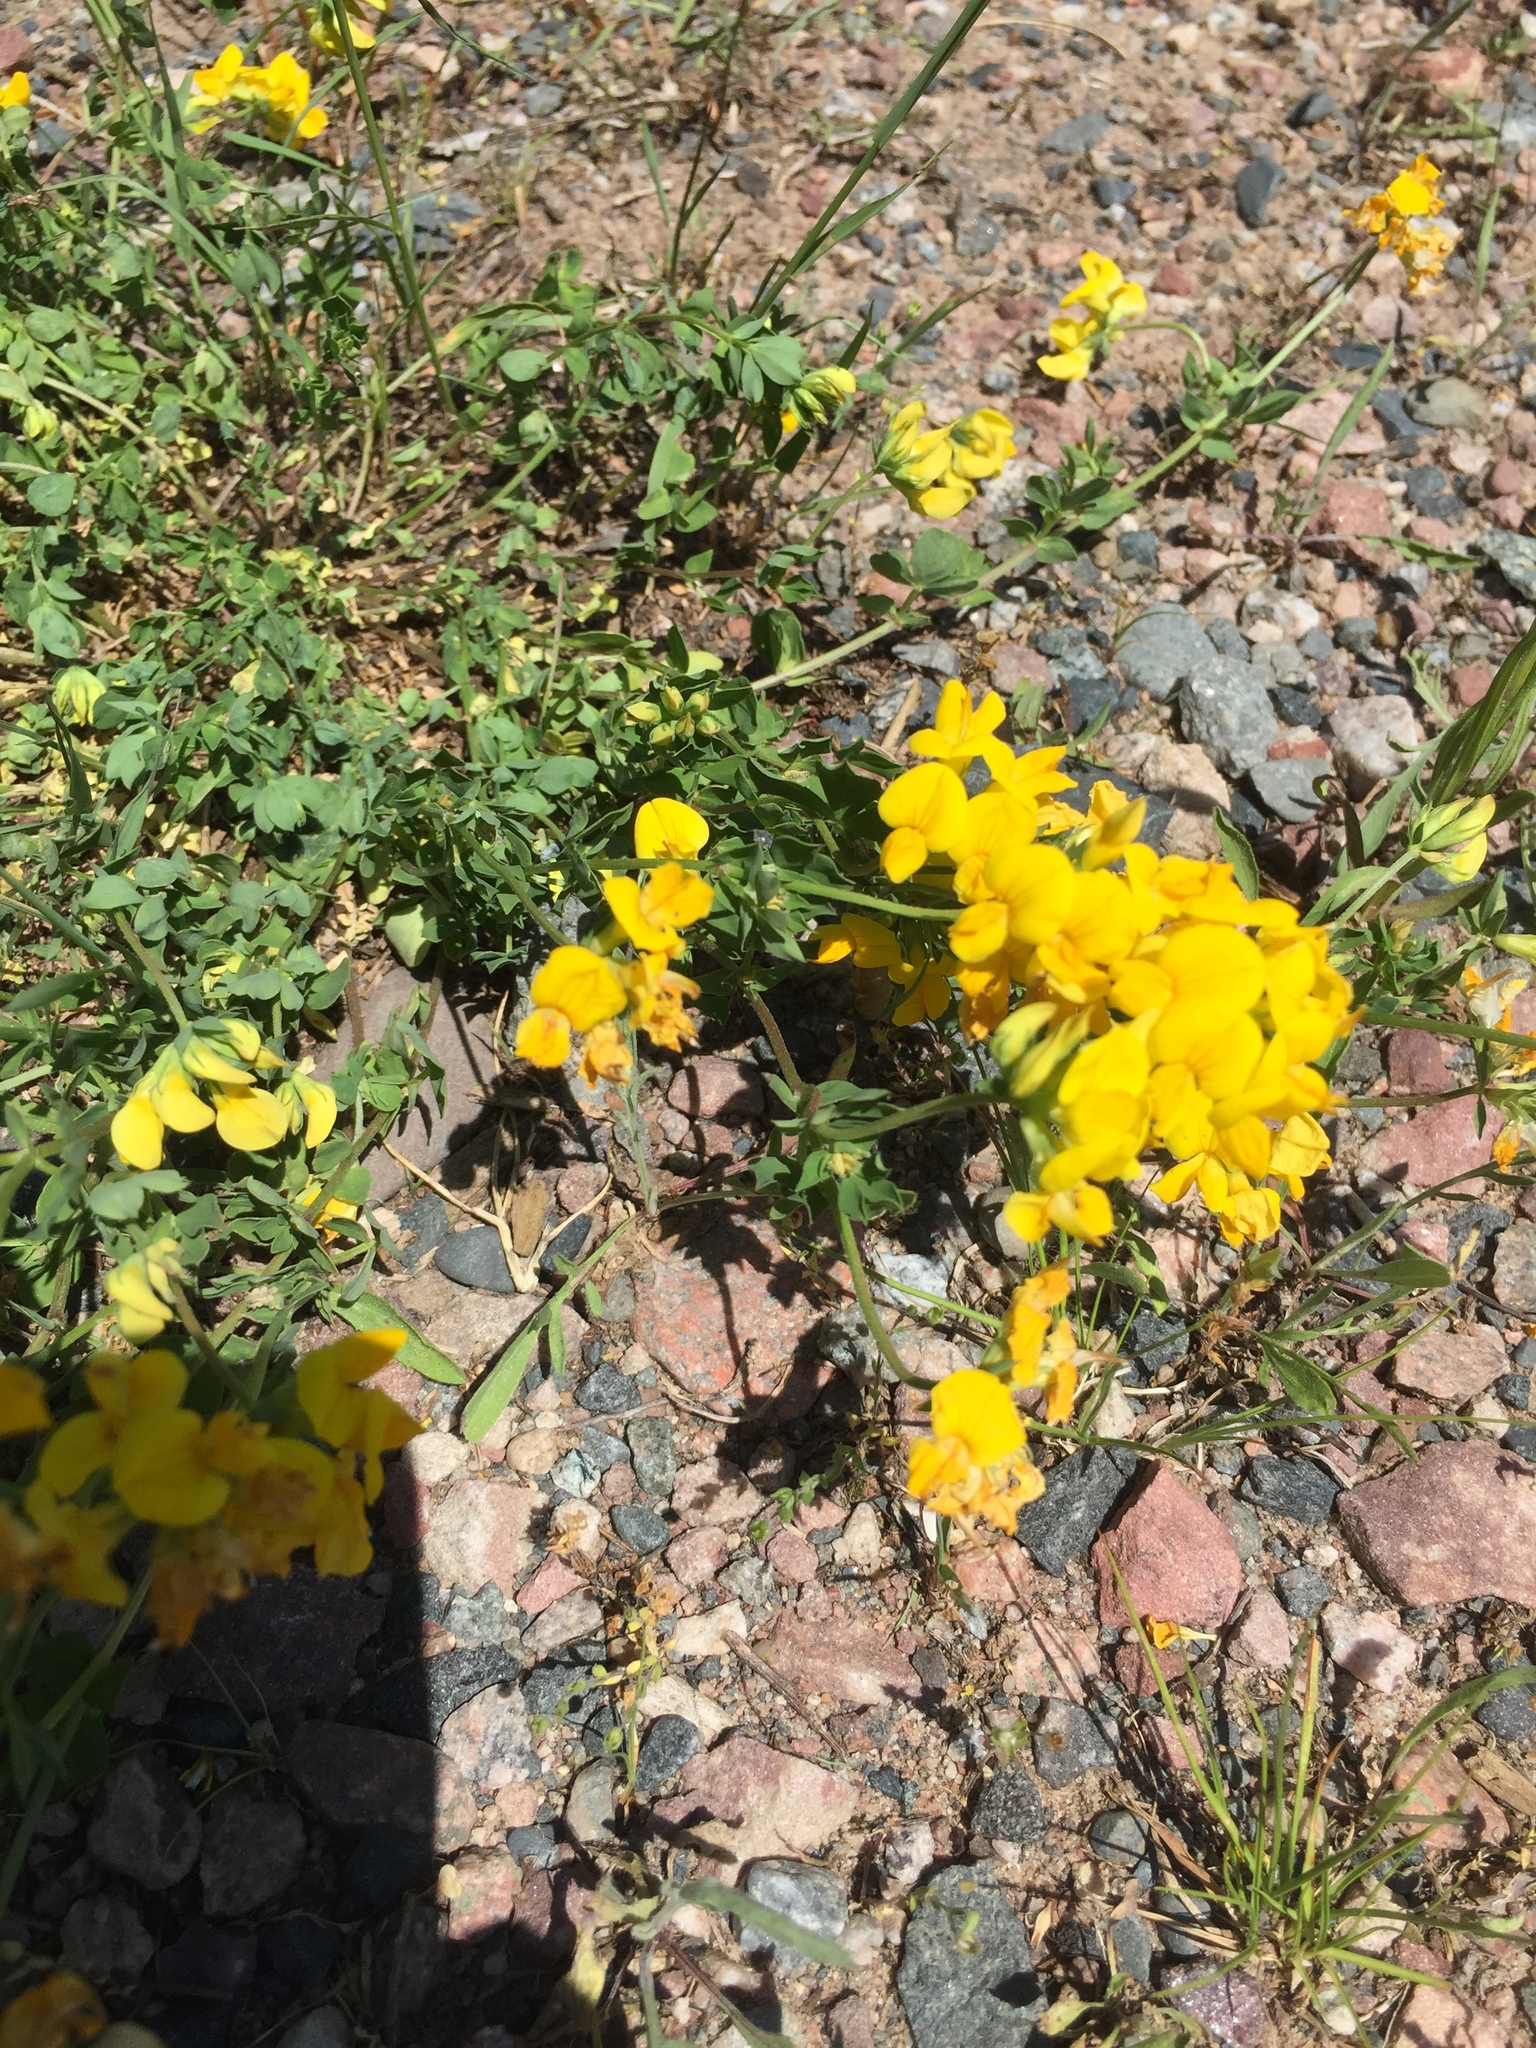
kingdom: Plantae
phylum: Tracheophyta
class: Magnoliopsida
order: Fabales
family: Fabaceae
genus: Lotus
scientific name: Lotus corniculatus
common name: Common bird's-foot-trefoil
